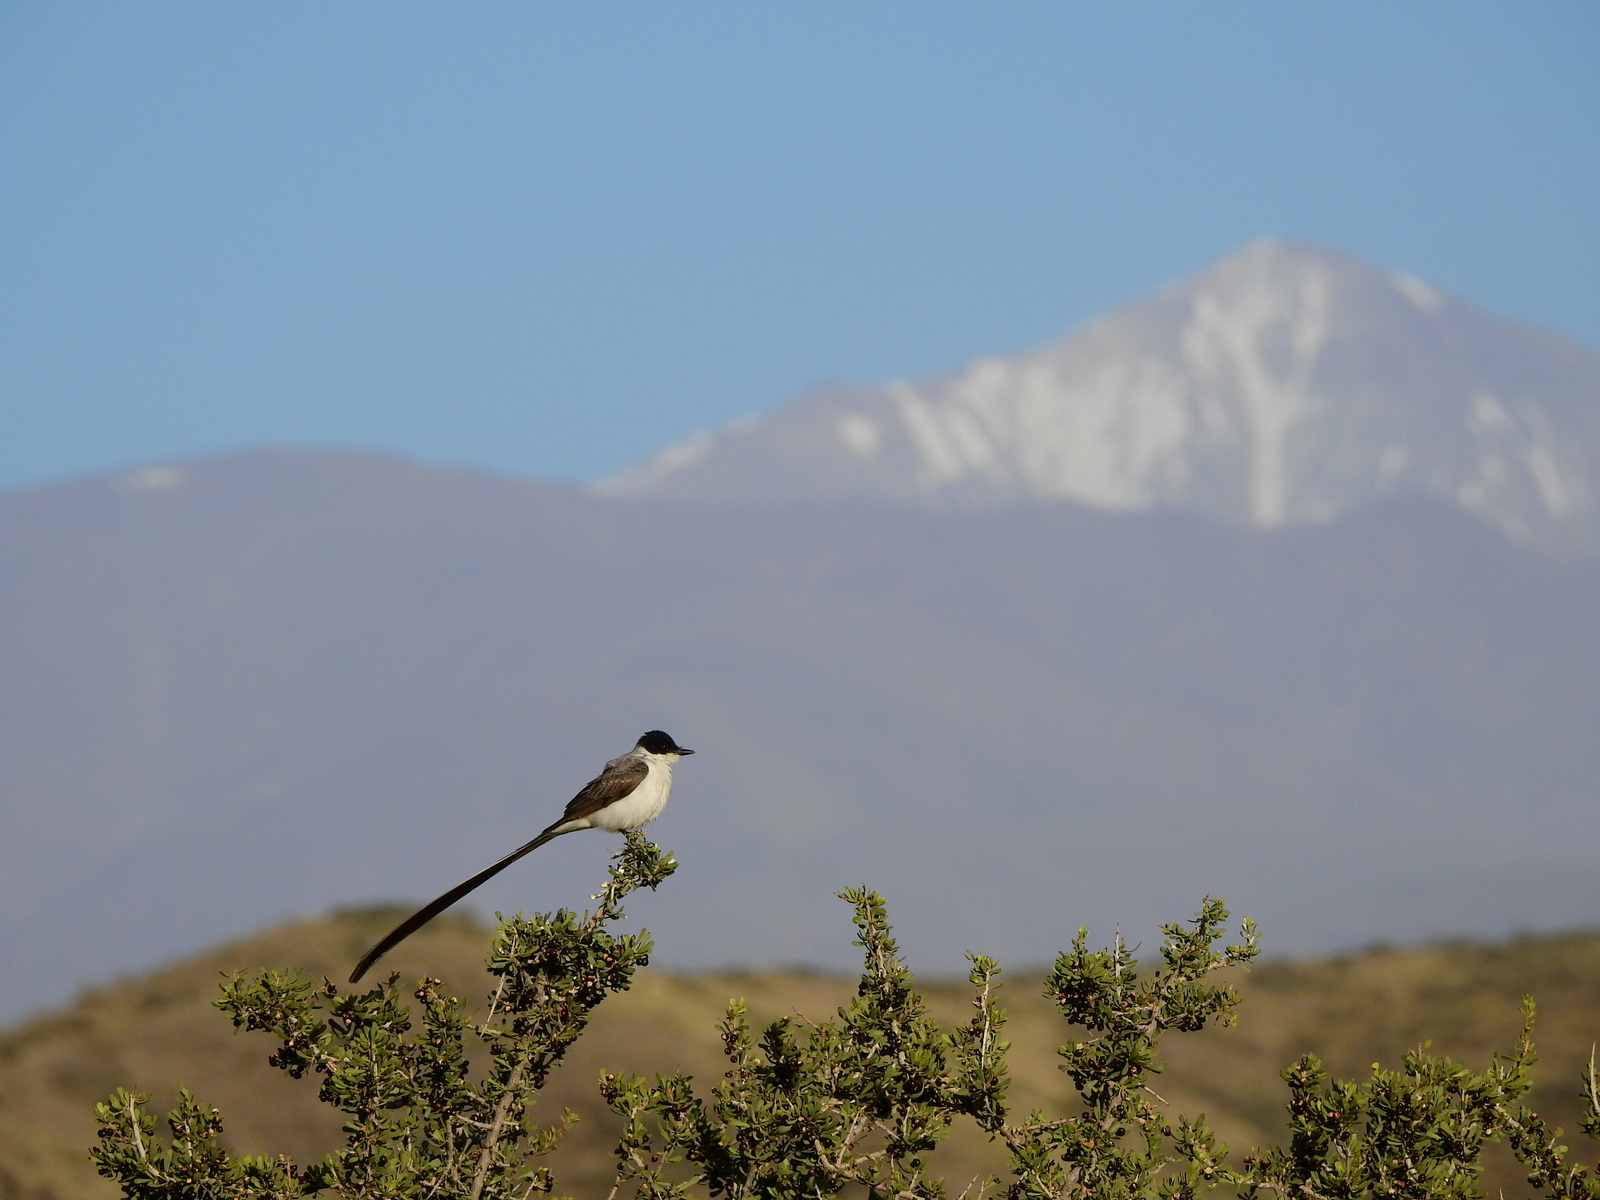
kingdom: Animalia
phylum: Chordata
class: Aves
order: Passeriformes
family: Tyrannidae
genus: Tyrannus
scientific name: Tyrannus savana
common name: Fork-tailed flycatcher
